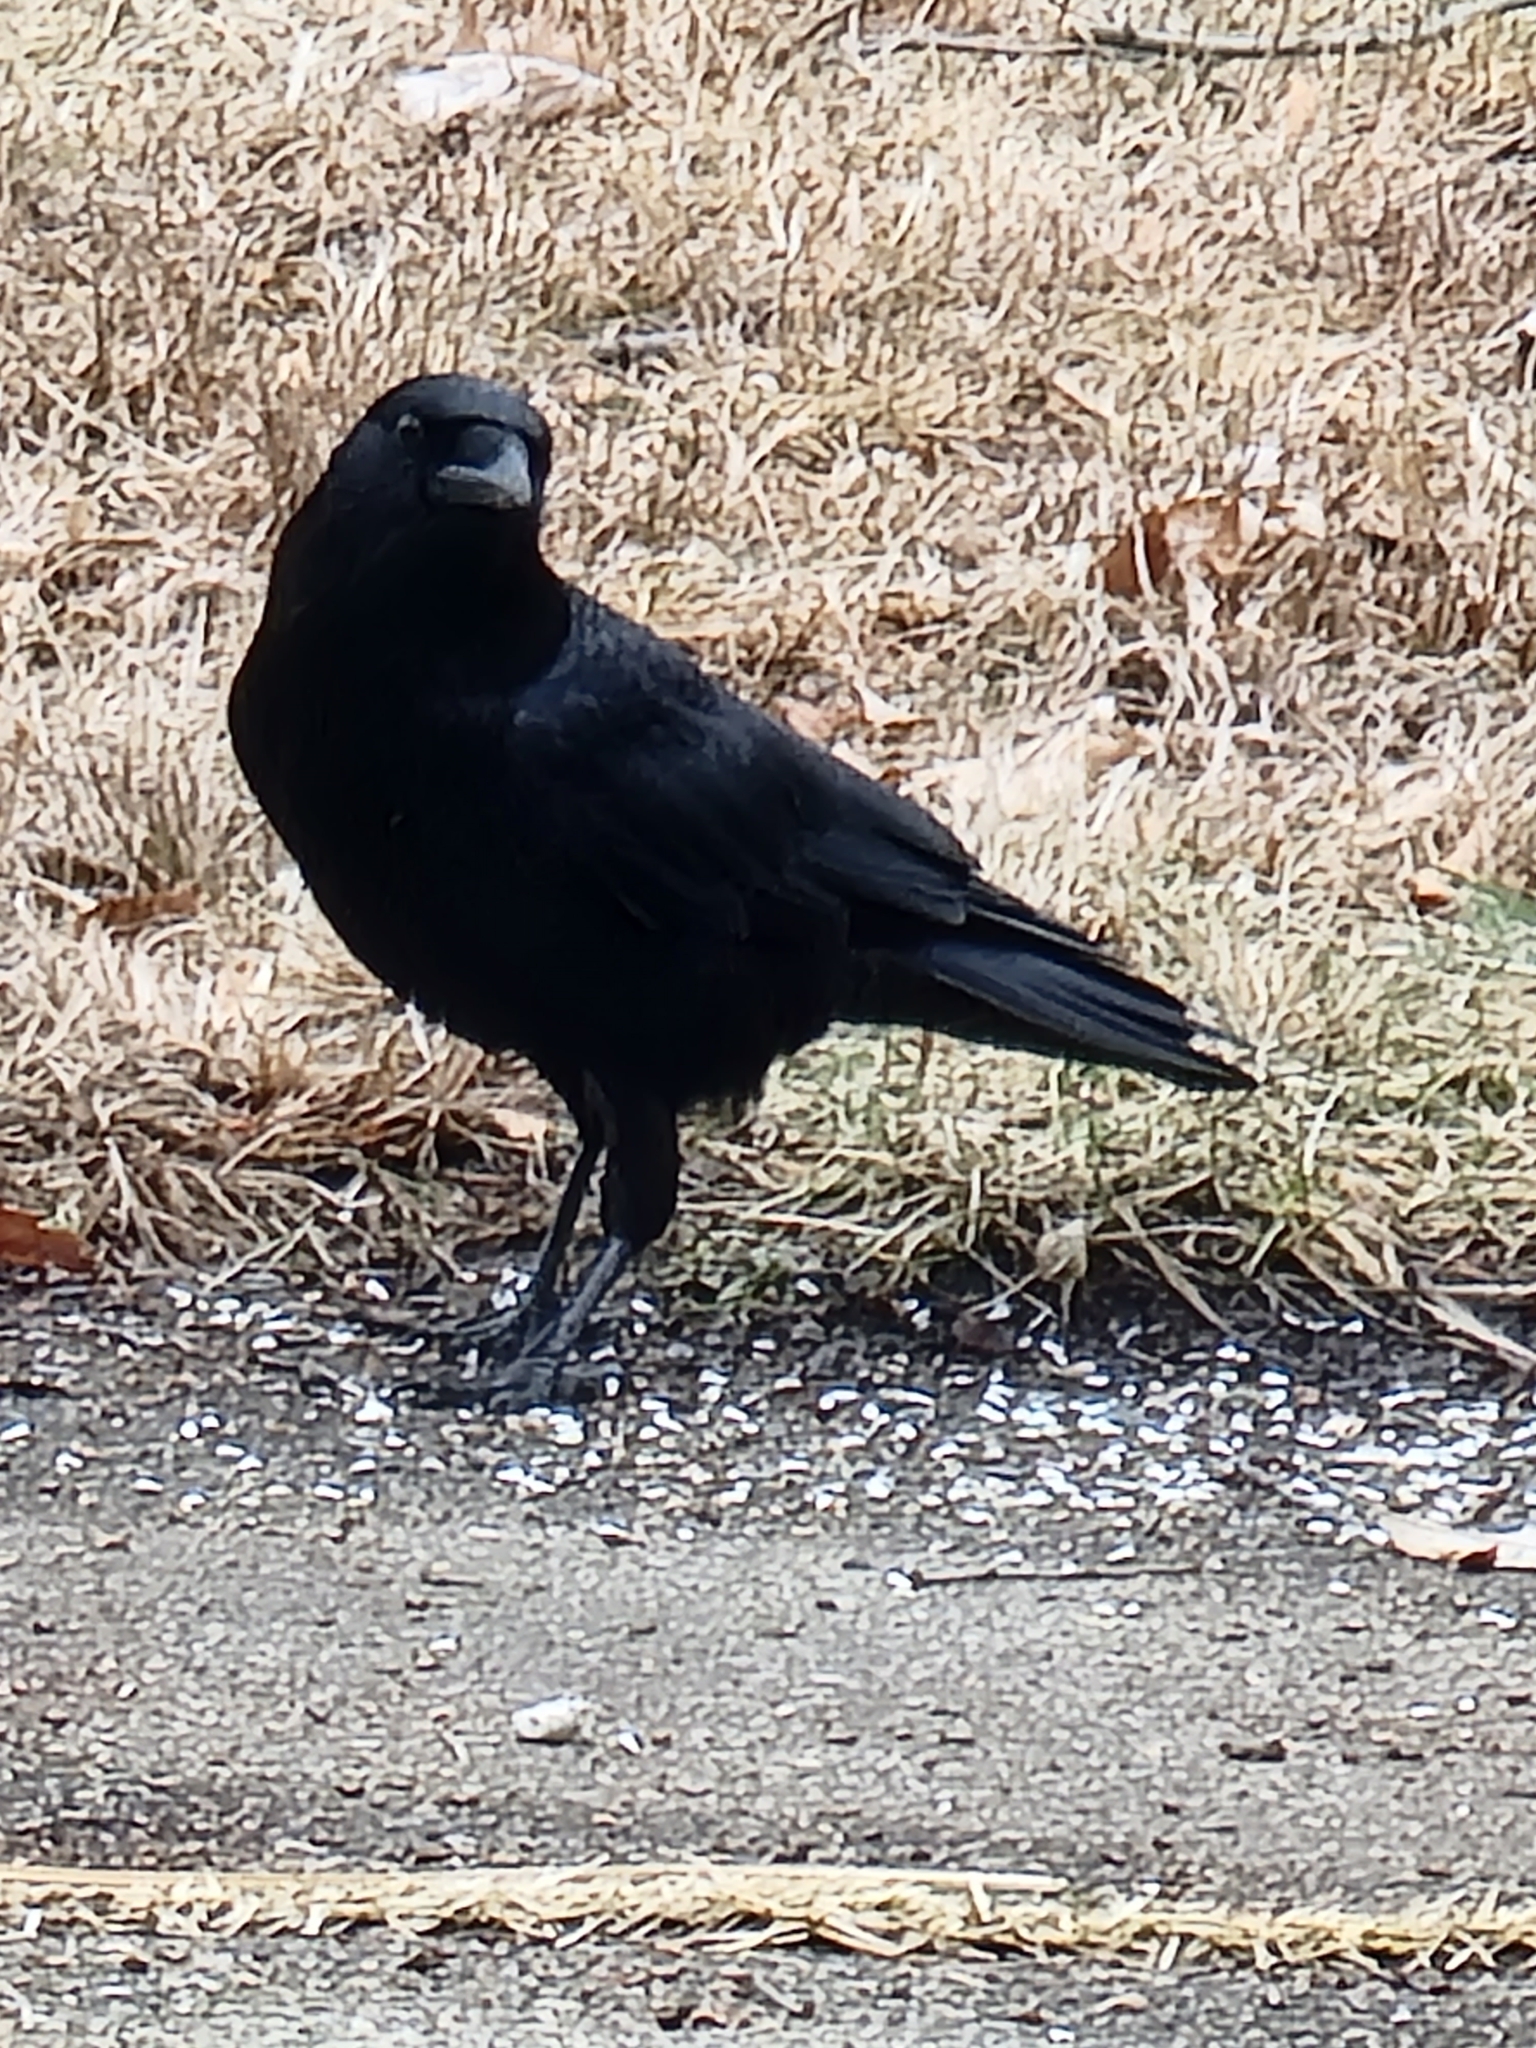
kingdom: Animalia
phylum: Chordata
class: Aves
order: Passeriformes
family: Corvidae
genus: Corvus
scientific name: Corvus brachyrhynchos
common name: American crow
